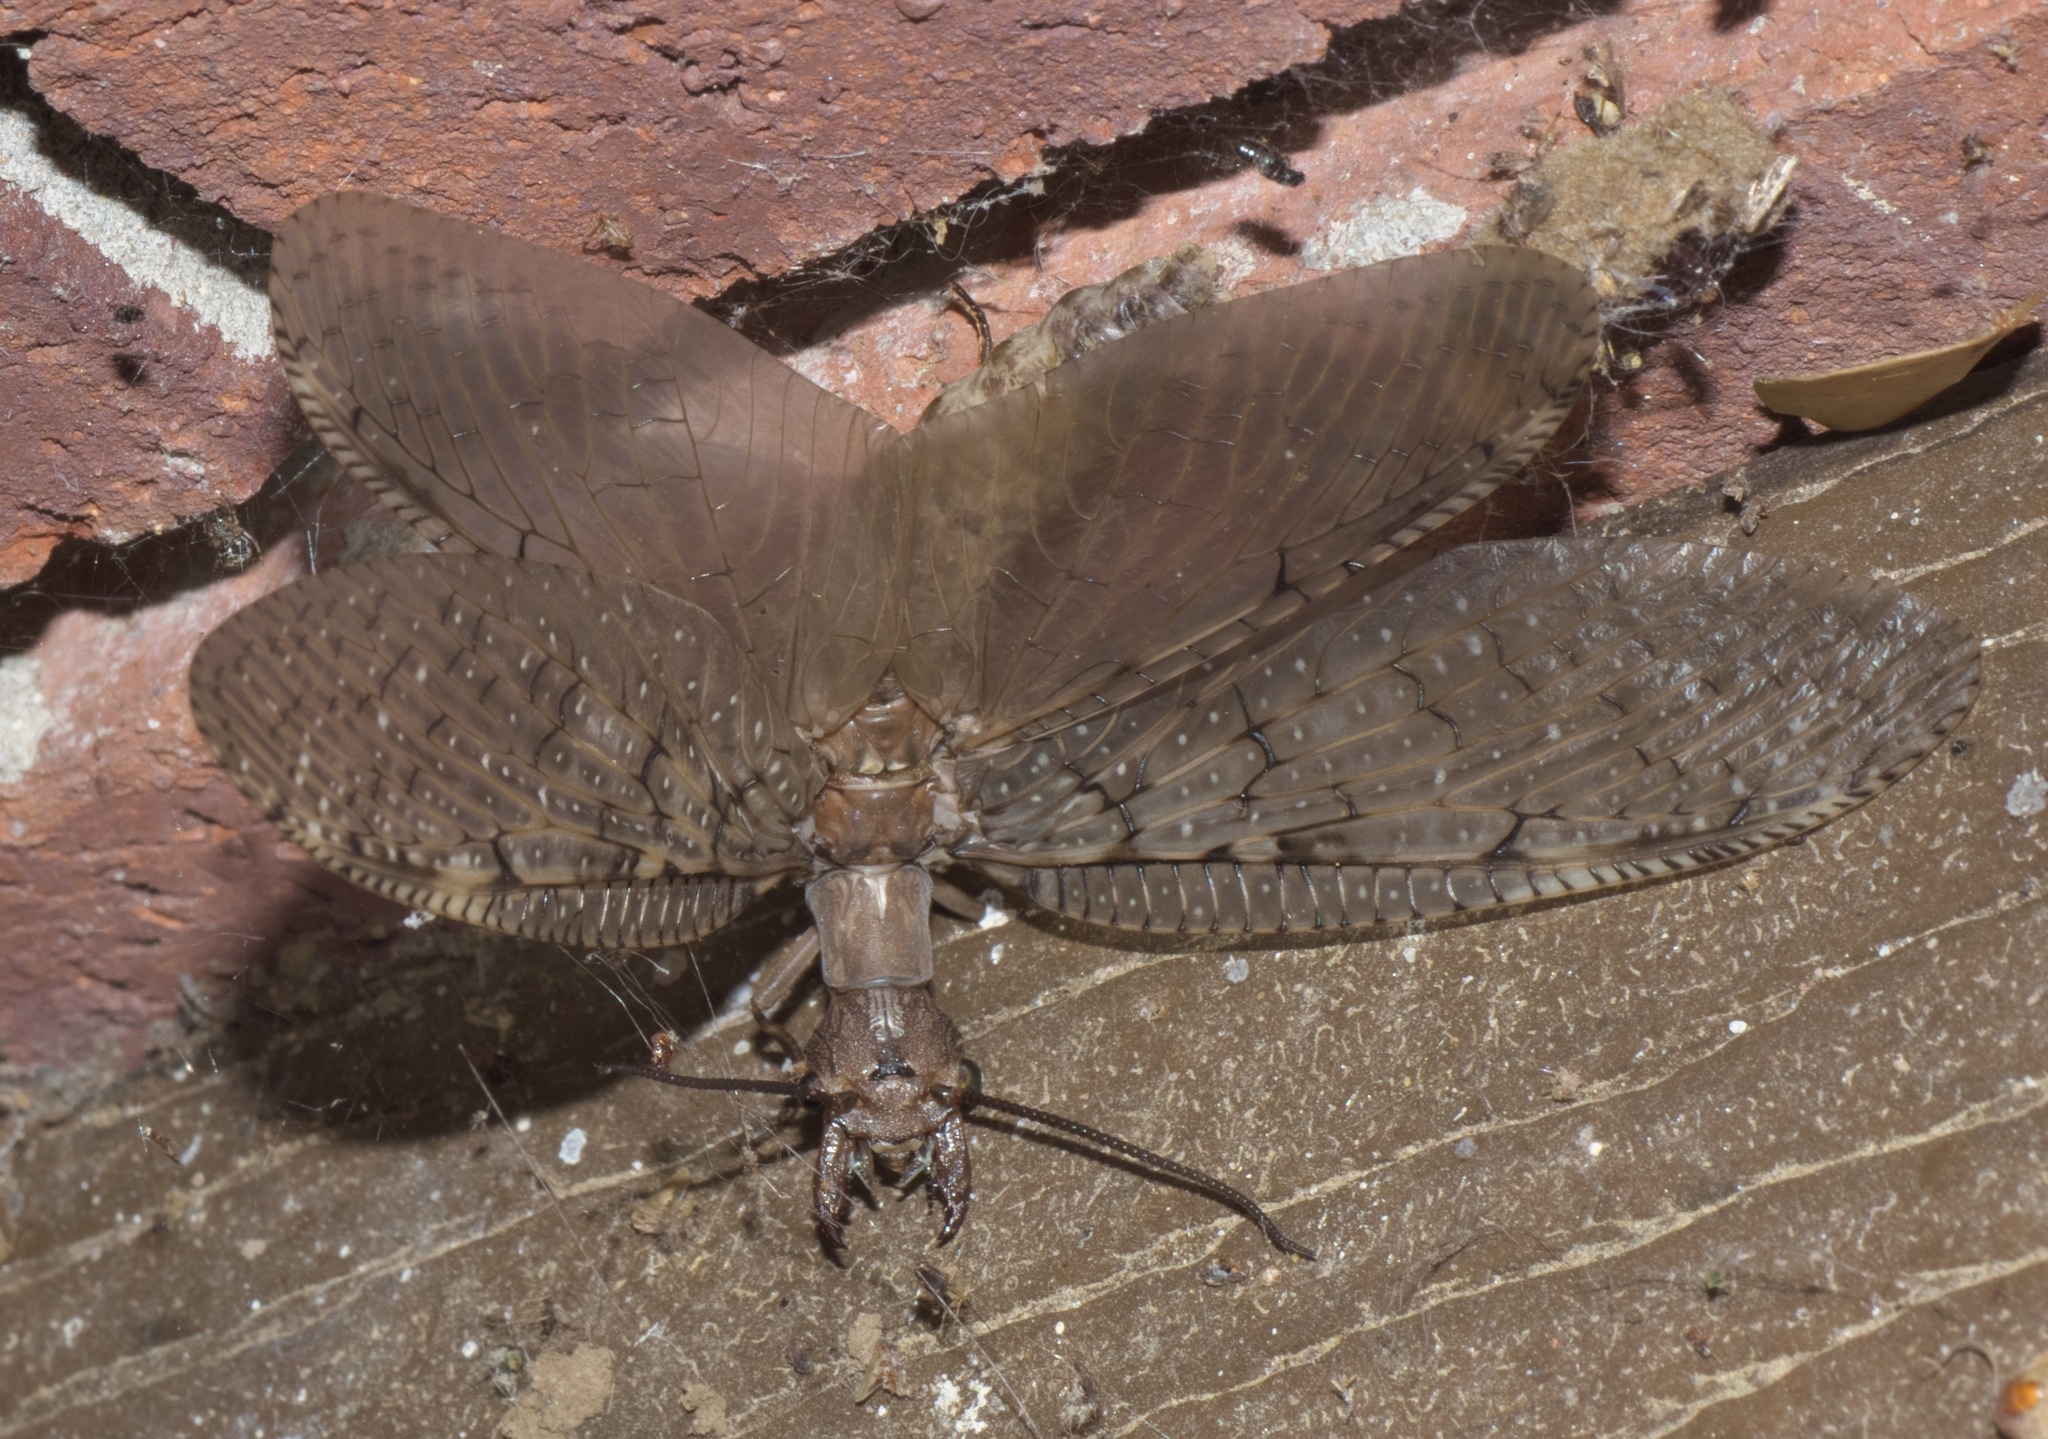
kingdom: Animalia
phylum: Arthropoda
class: Insecta
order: Megaloptera
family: Corydalidae
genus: Corydalus
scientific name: Corydalus cornutus
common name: Dobsonfly
